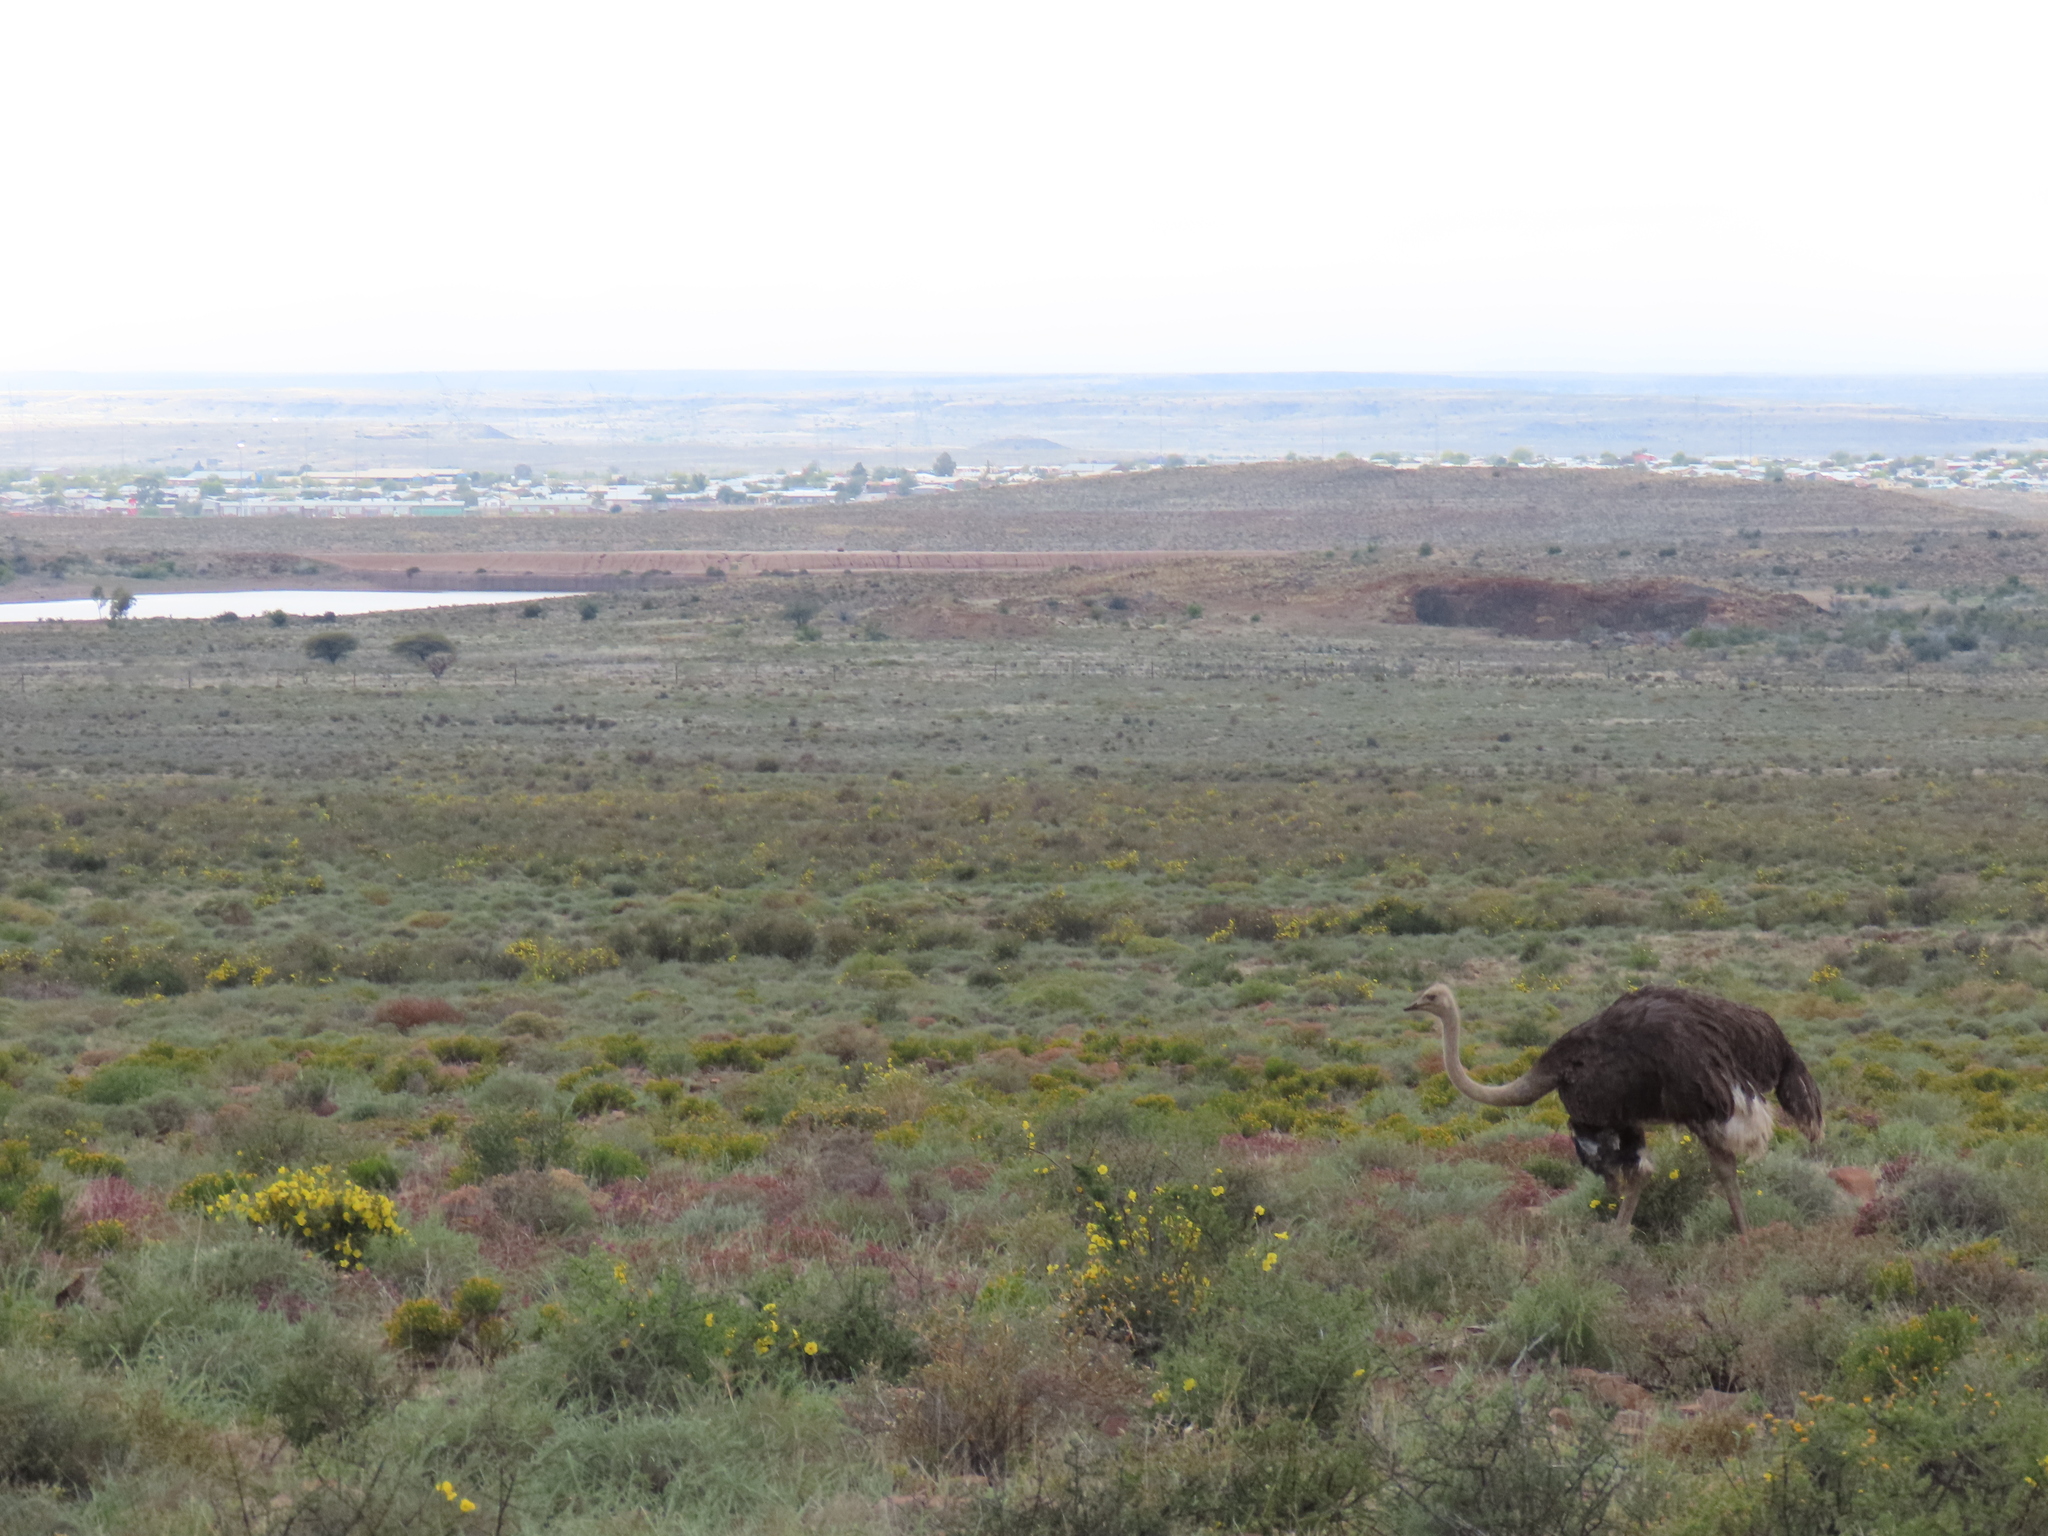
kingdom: Animalia
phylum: Chordata
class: Aves
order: Struthioniformes
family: Struthionidae
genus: Struthio
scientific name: Struthio camelus
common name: Common ostrich
